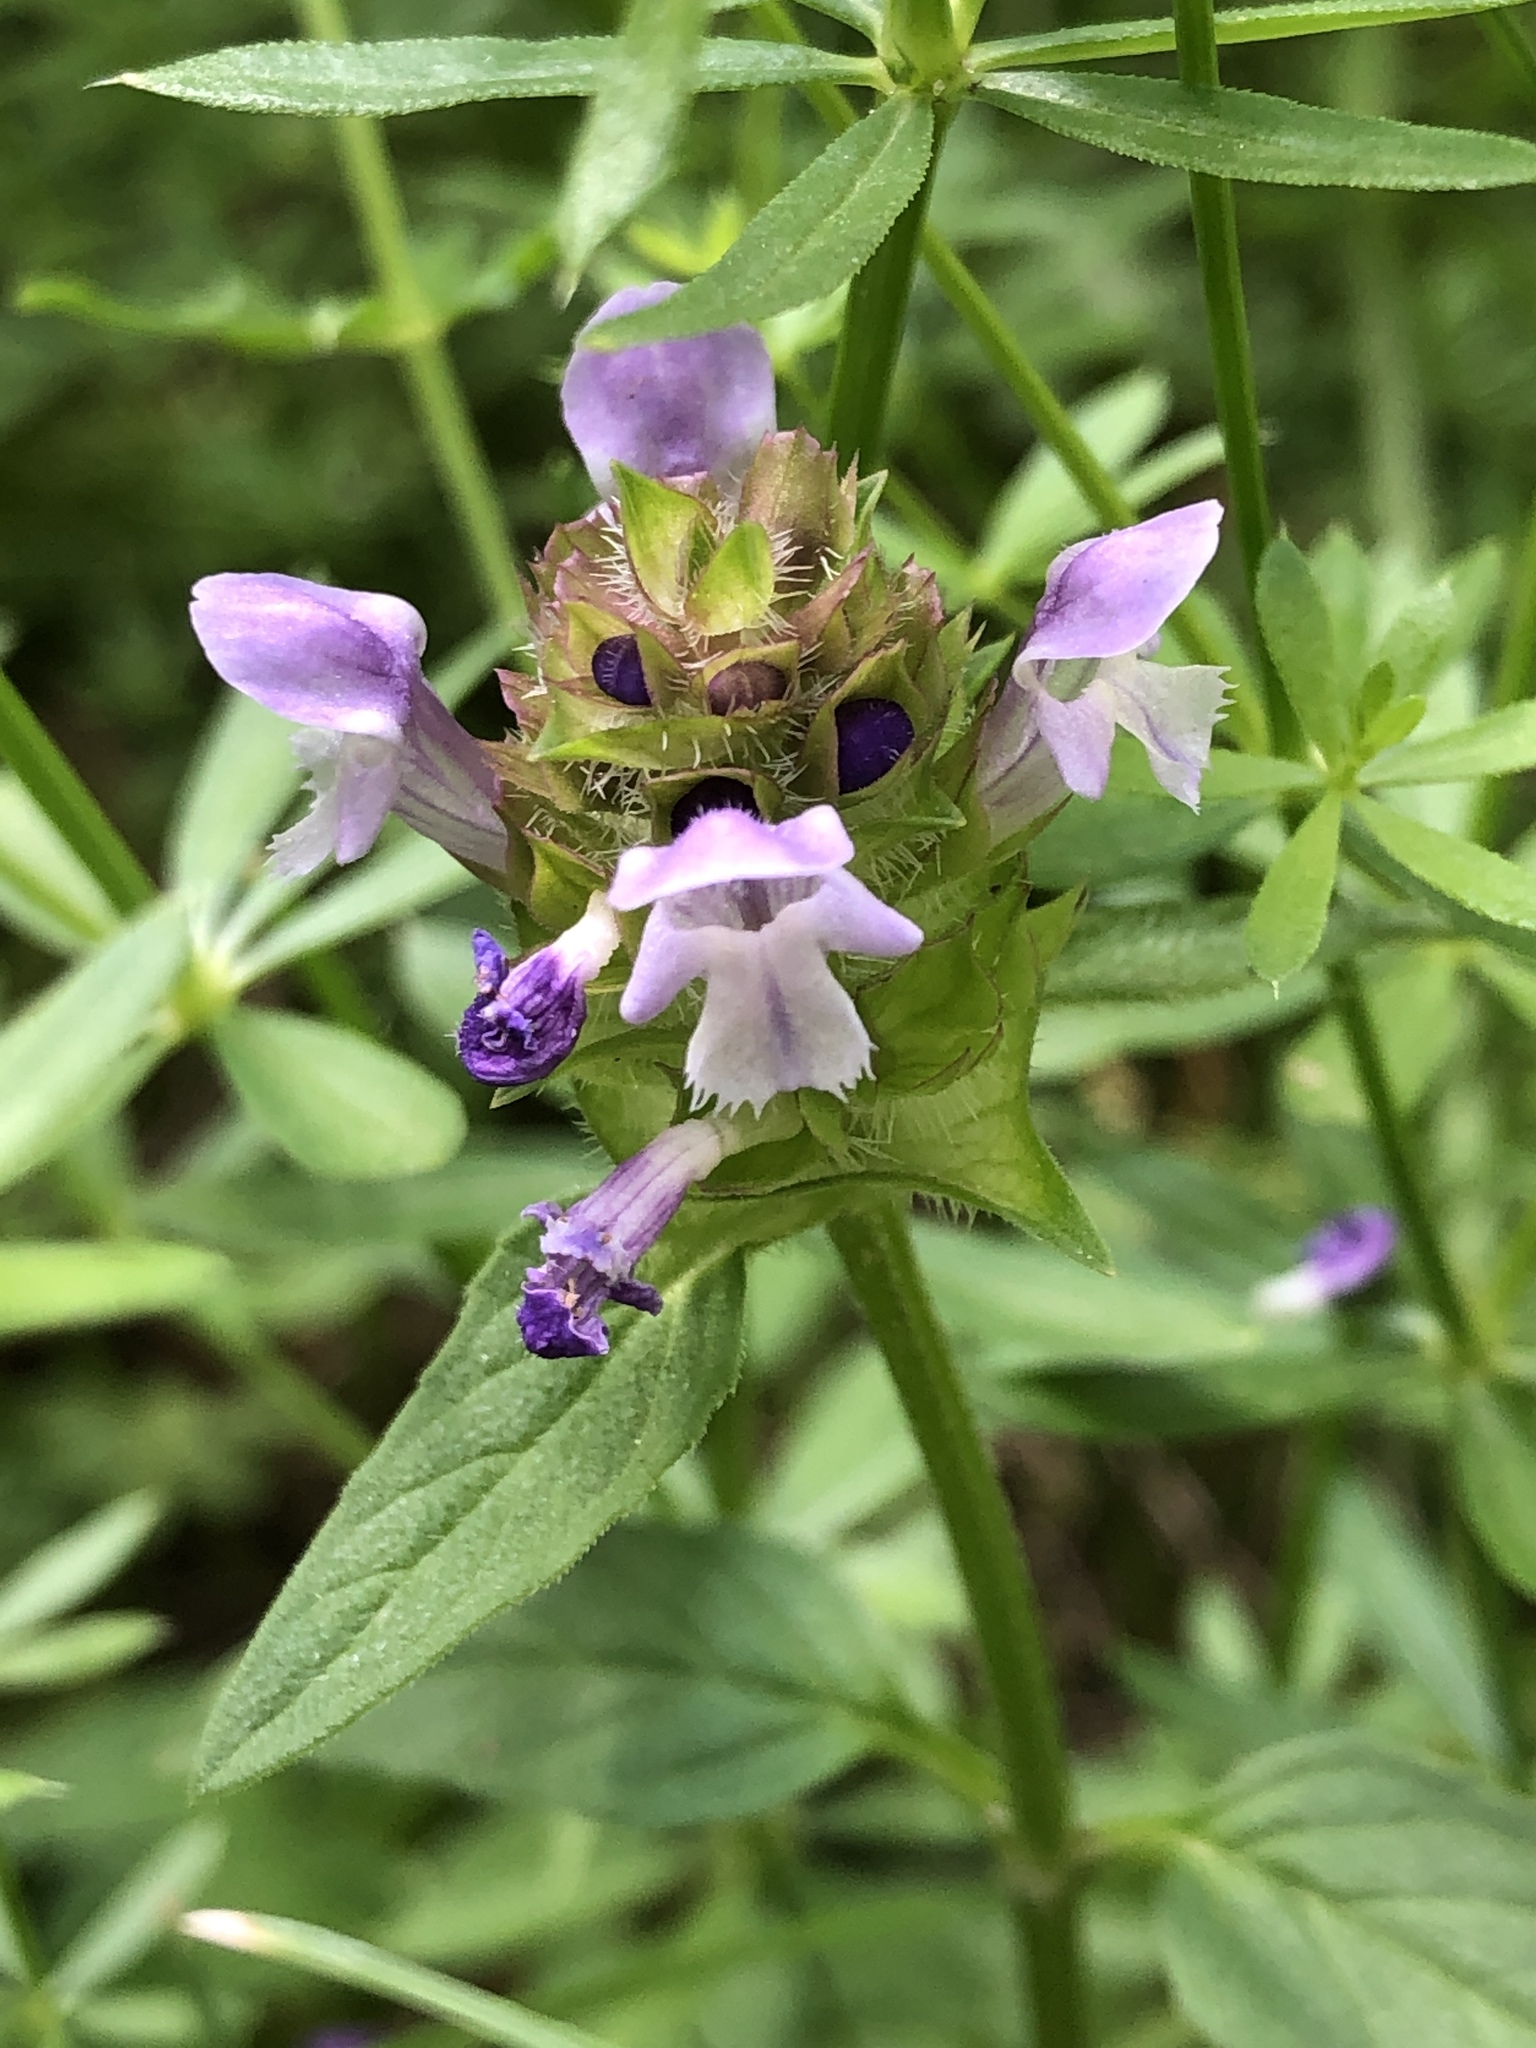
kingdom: Plantae
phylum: Tracheophyta
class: Magnoliopsida
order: Lamiales
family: Lamiaceae
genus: Prunella
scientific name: Prunella vulgaris
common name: Heal-all
